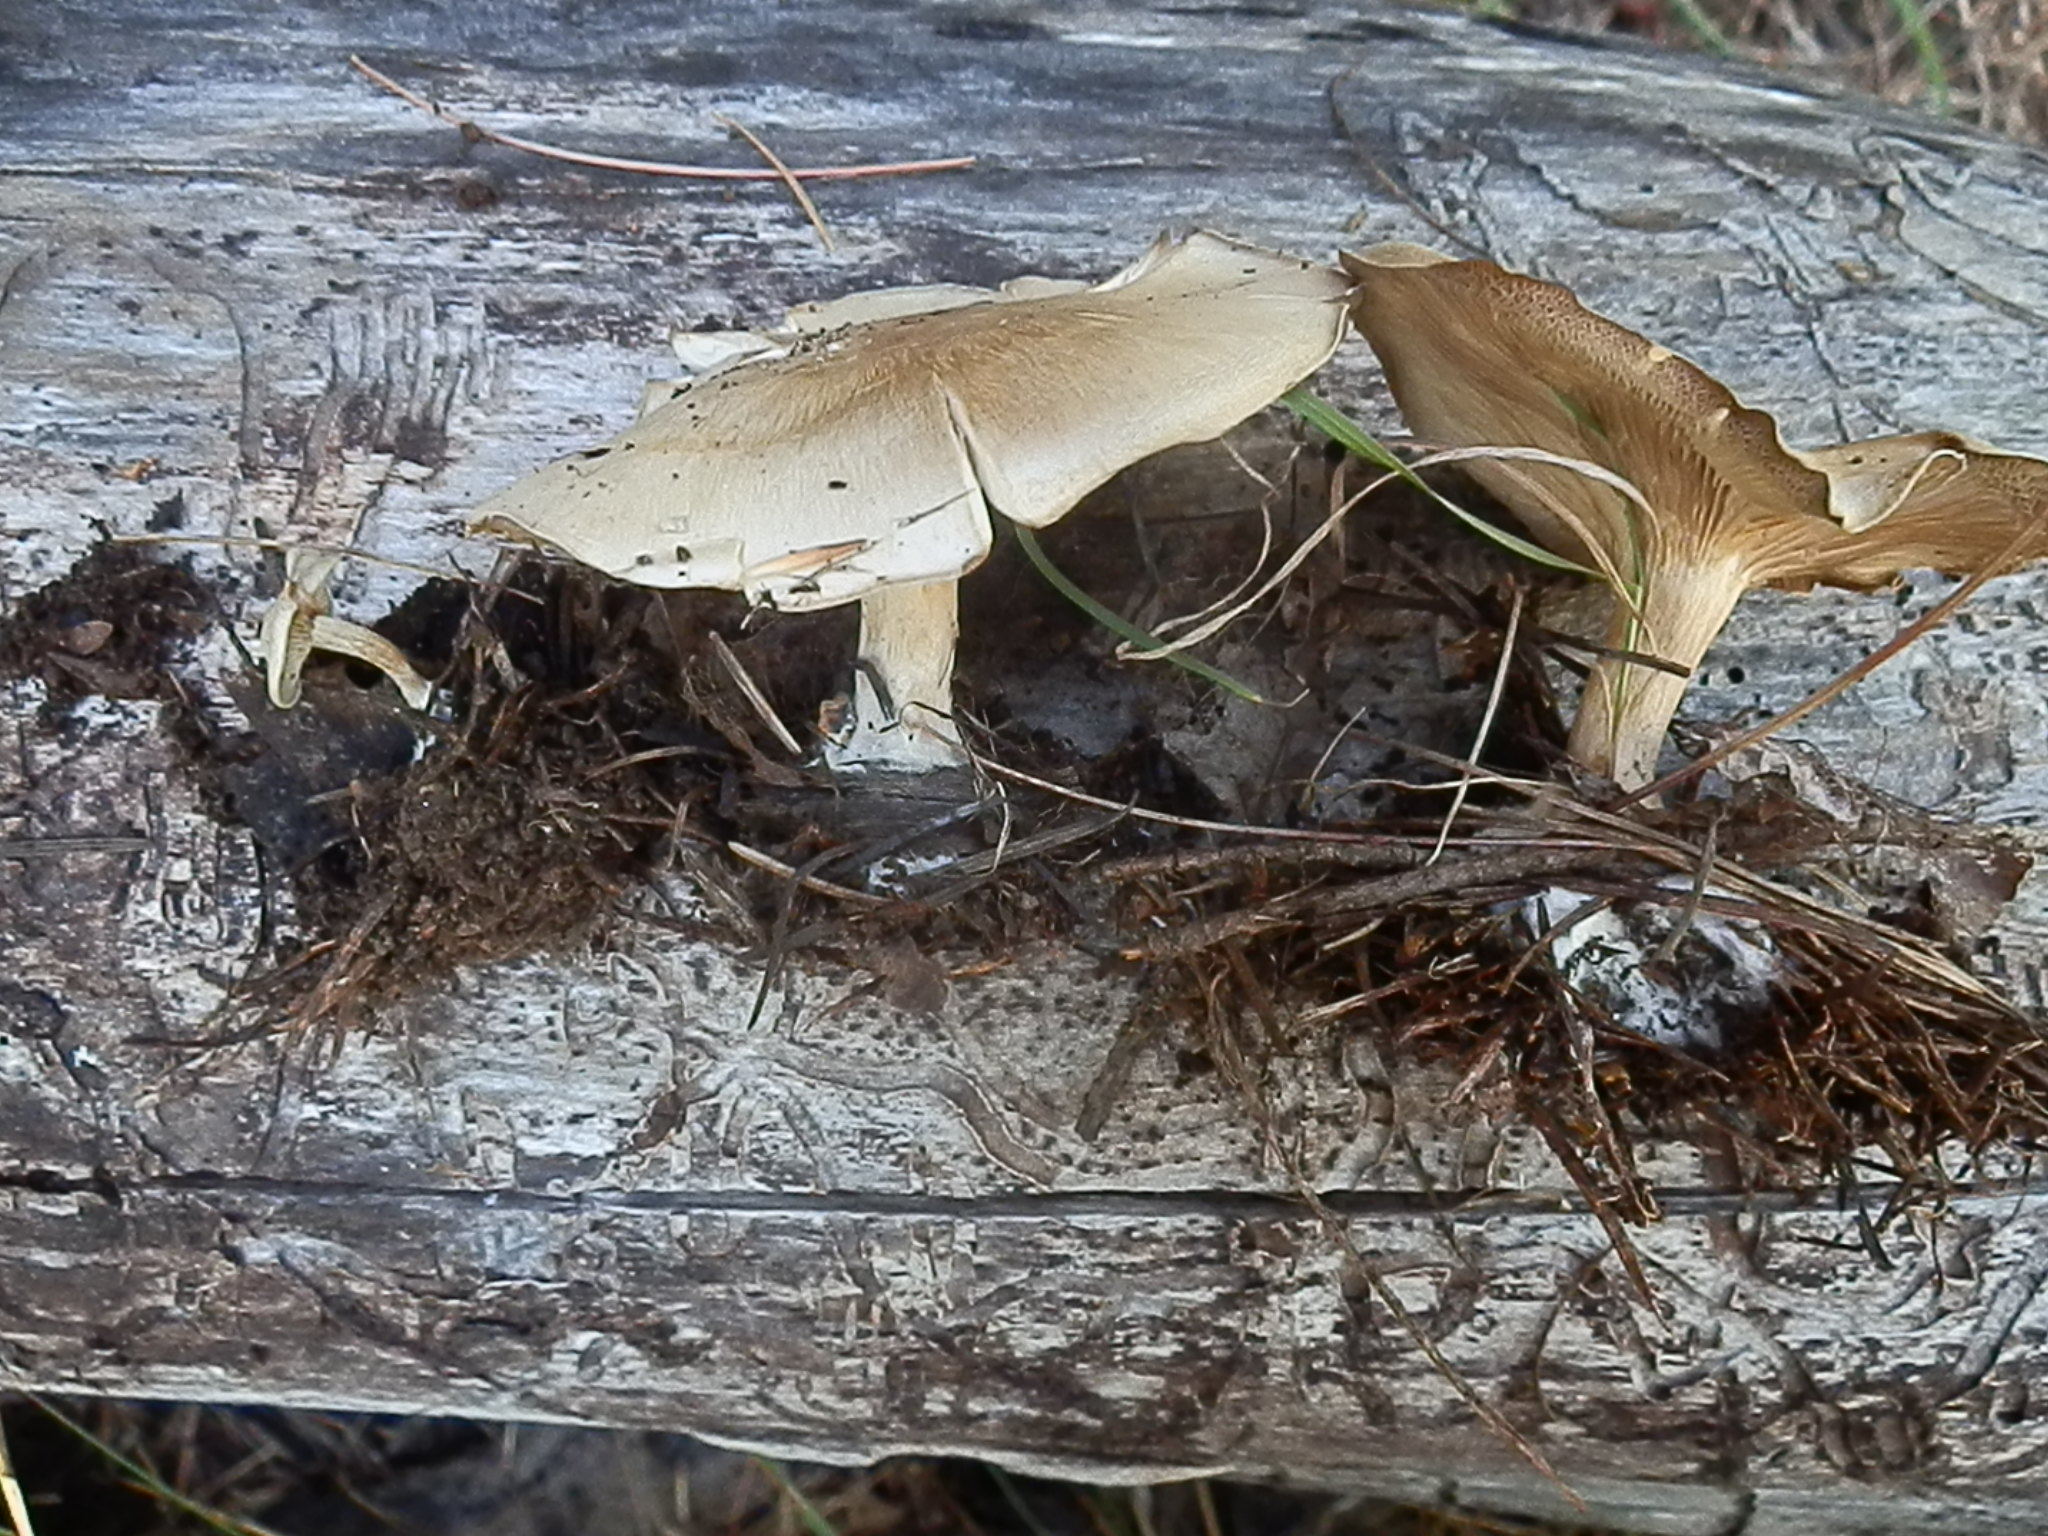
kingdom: Fungi
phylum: Basidiomycota
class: Agaricomycetes
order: Agaricales
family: Tricholomataceae
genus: Collybia
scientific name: Collybia
